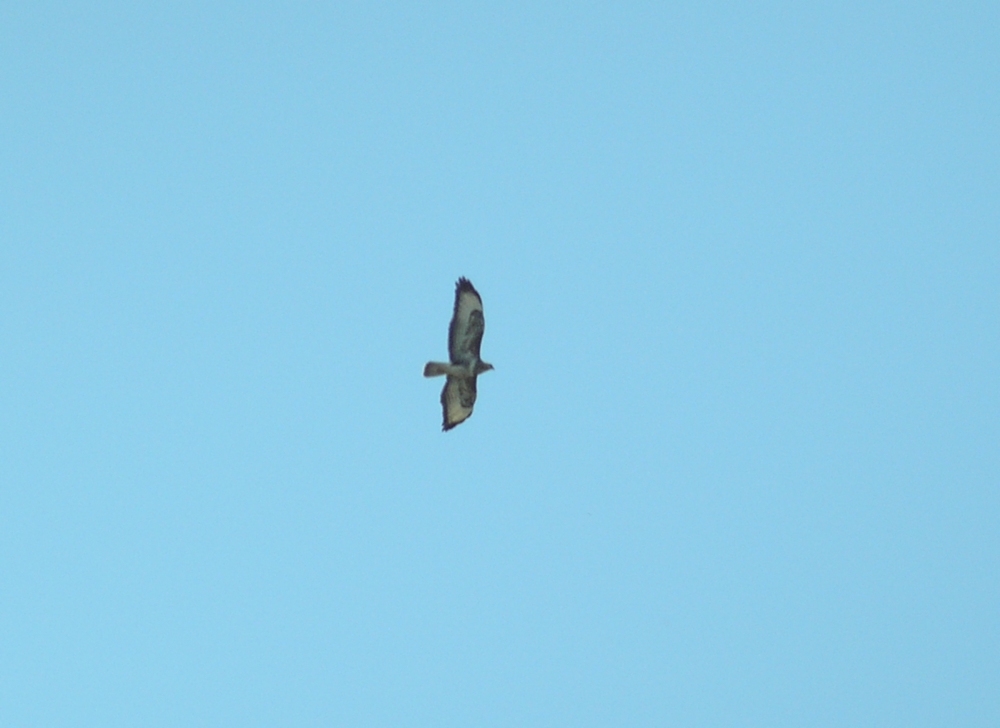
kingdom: Animalia
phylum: Chordata
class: Aves
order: Accipitriformes
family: Accipitridae
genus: Buteo
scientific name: Buteo buteo
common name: Common buzzard
